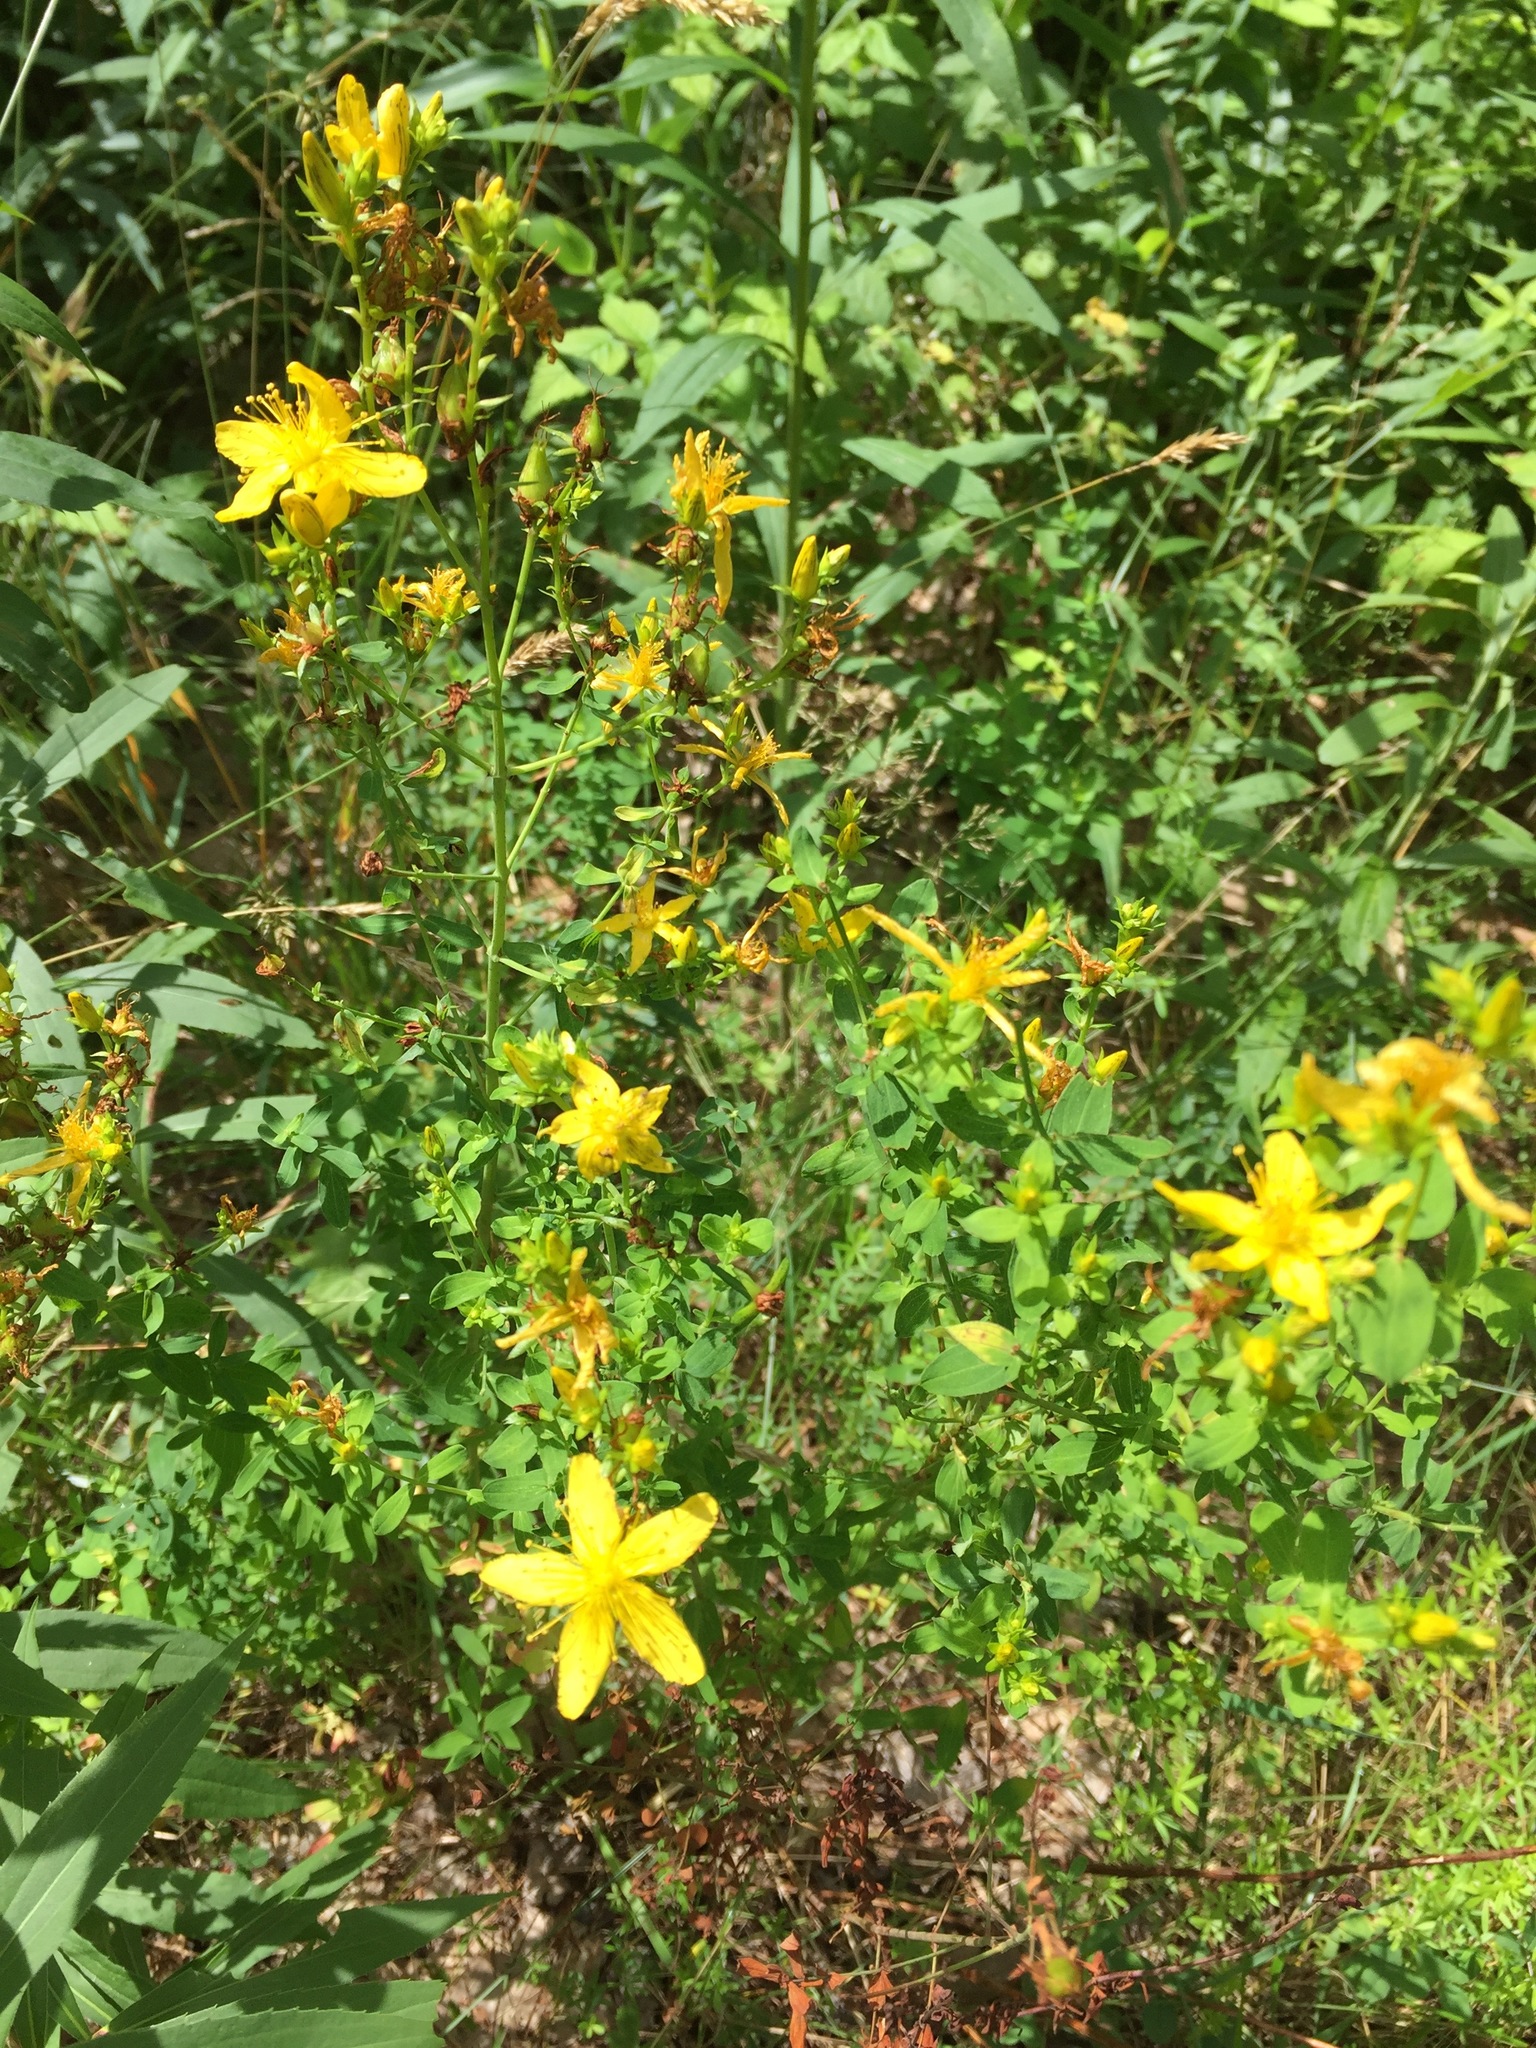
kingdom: Plantae
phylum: Tracheophyta
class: Magnoliopsida
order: Malpighiales
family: Hypericaceae
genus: Hypericum
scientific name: Hypericum perforatum
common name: Common st. johnswort
